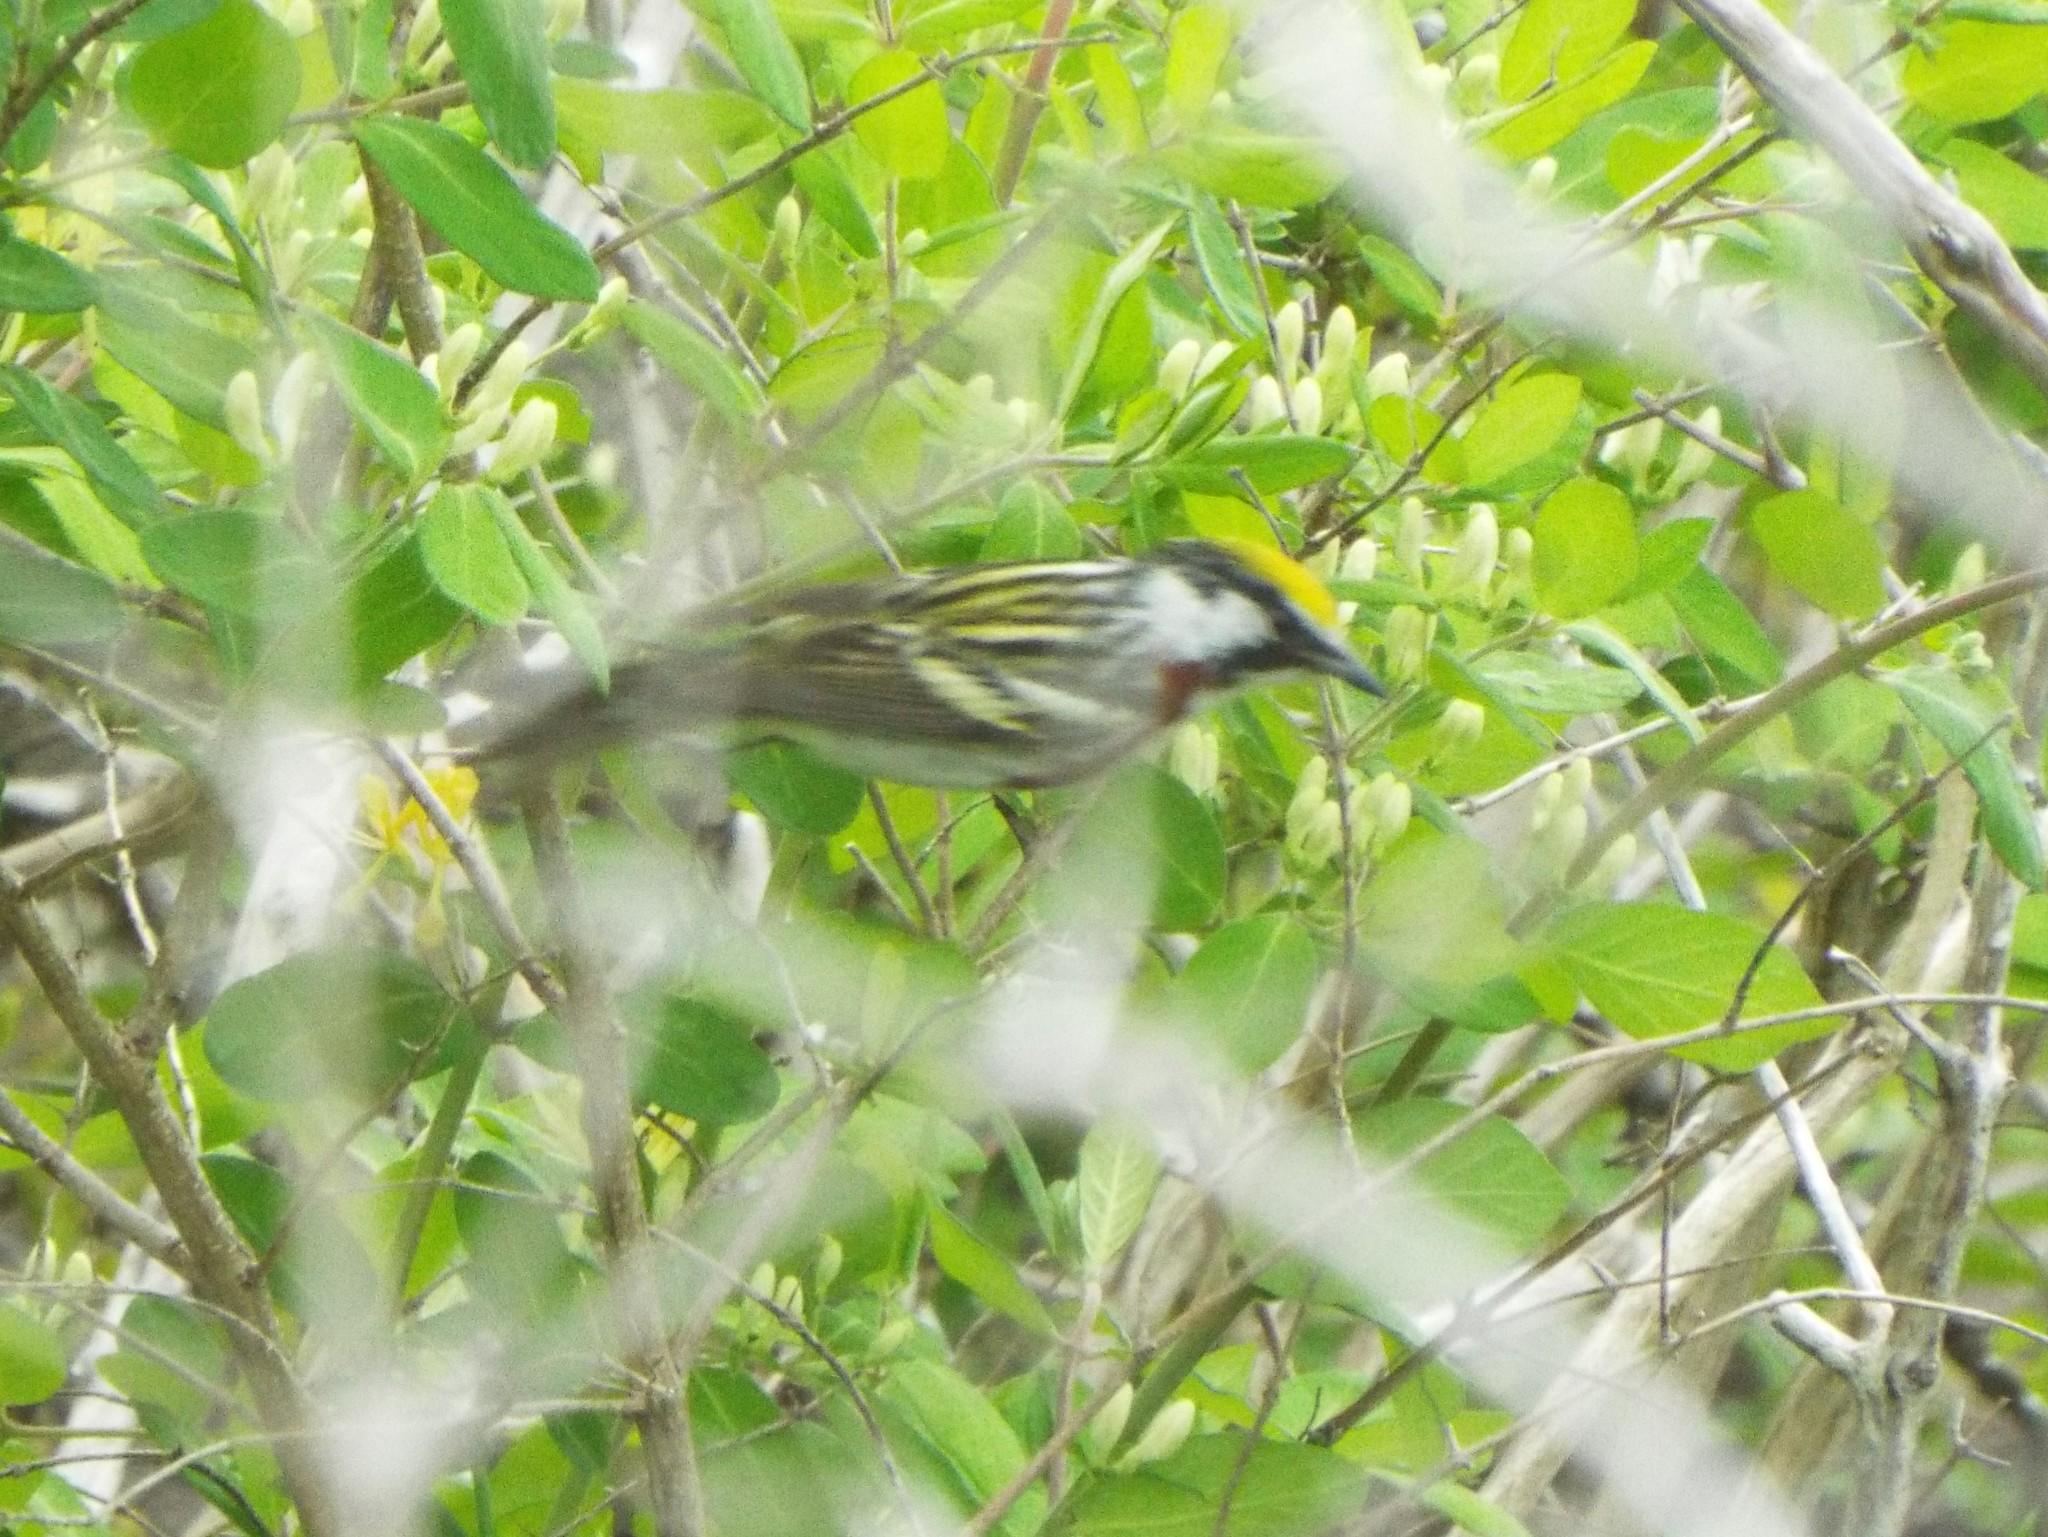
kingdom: Animalia
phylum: Chordata
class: Aves
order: Passeriformes
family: Parulidae
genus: Setophaga
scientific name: Setophaga pensylvanica
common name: Chestnut-sided warbler
